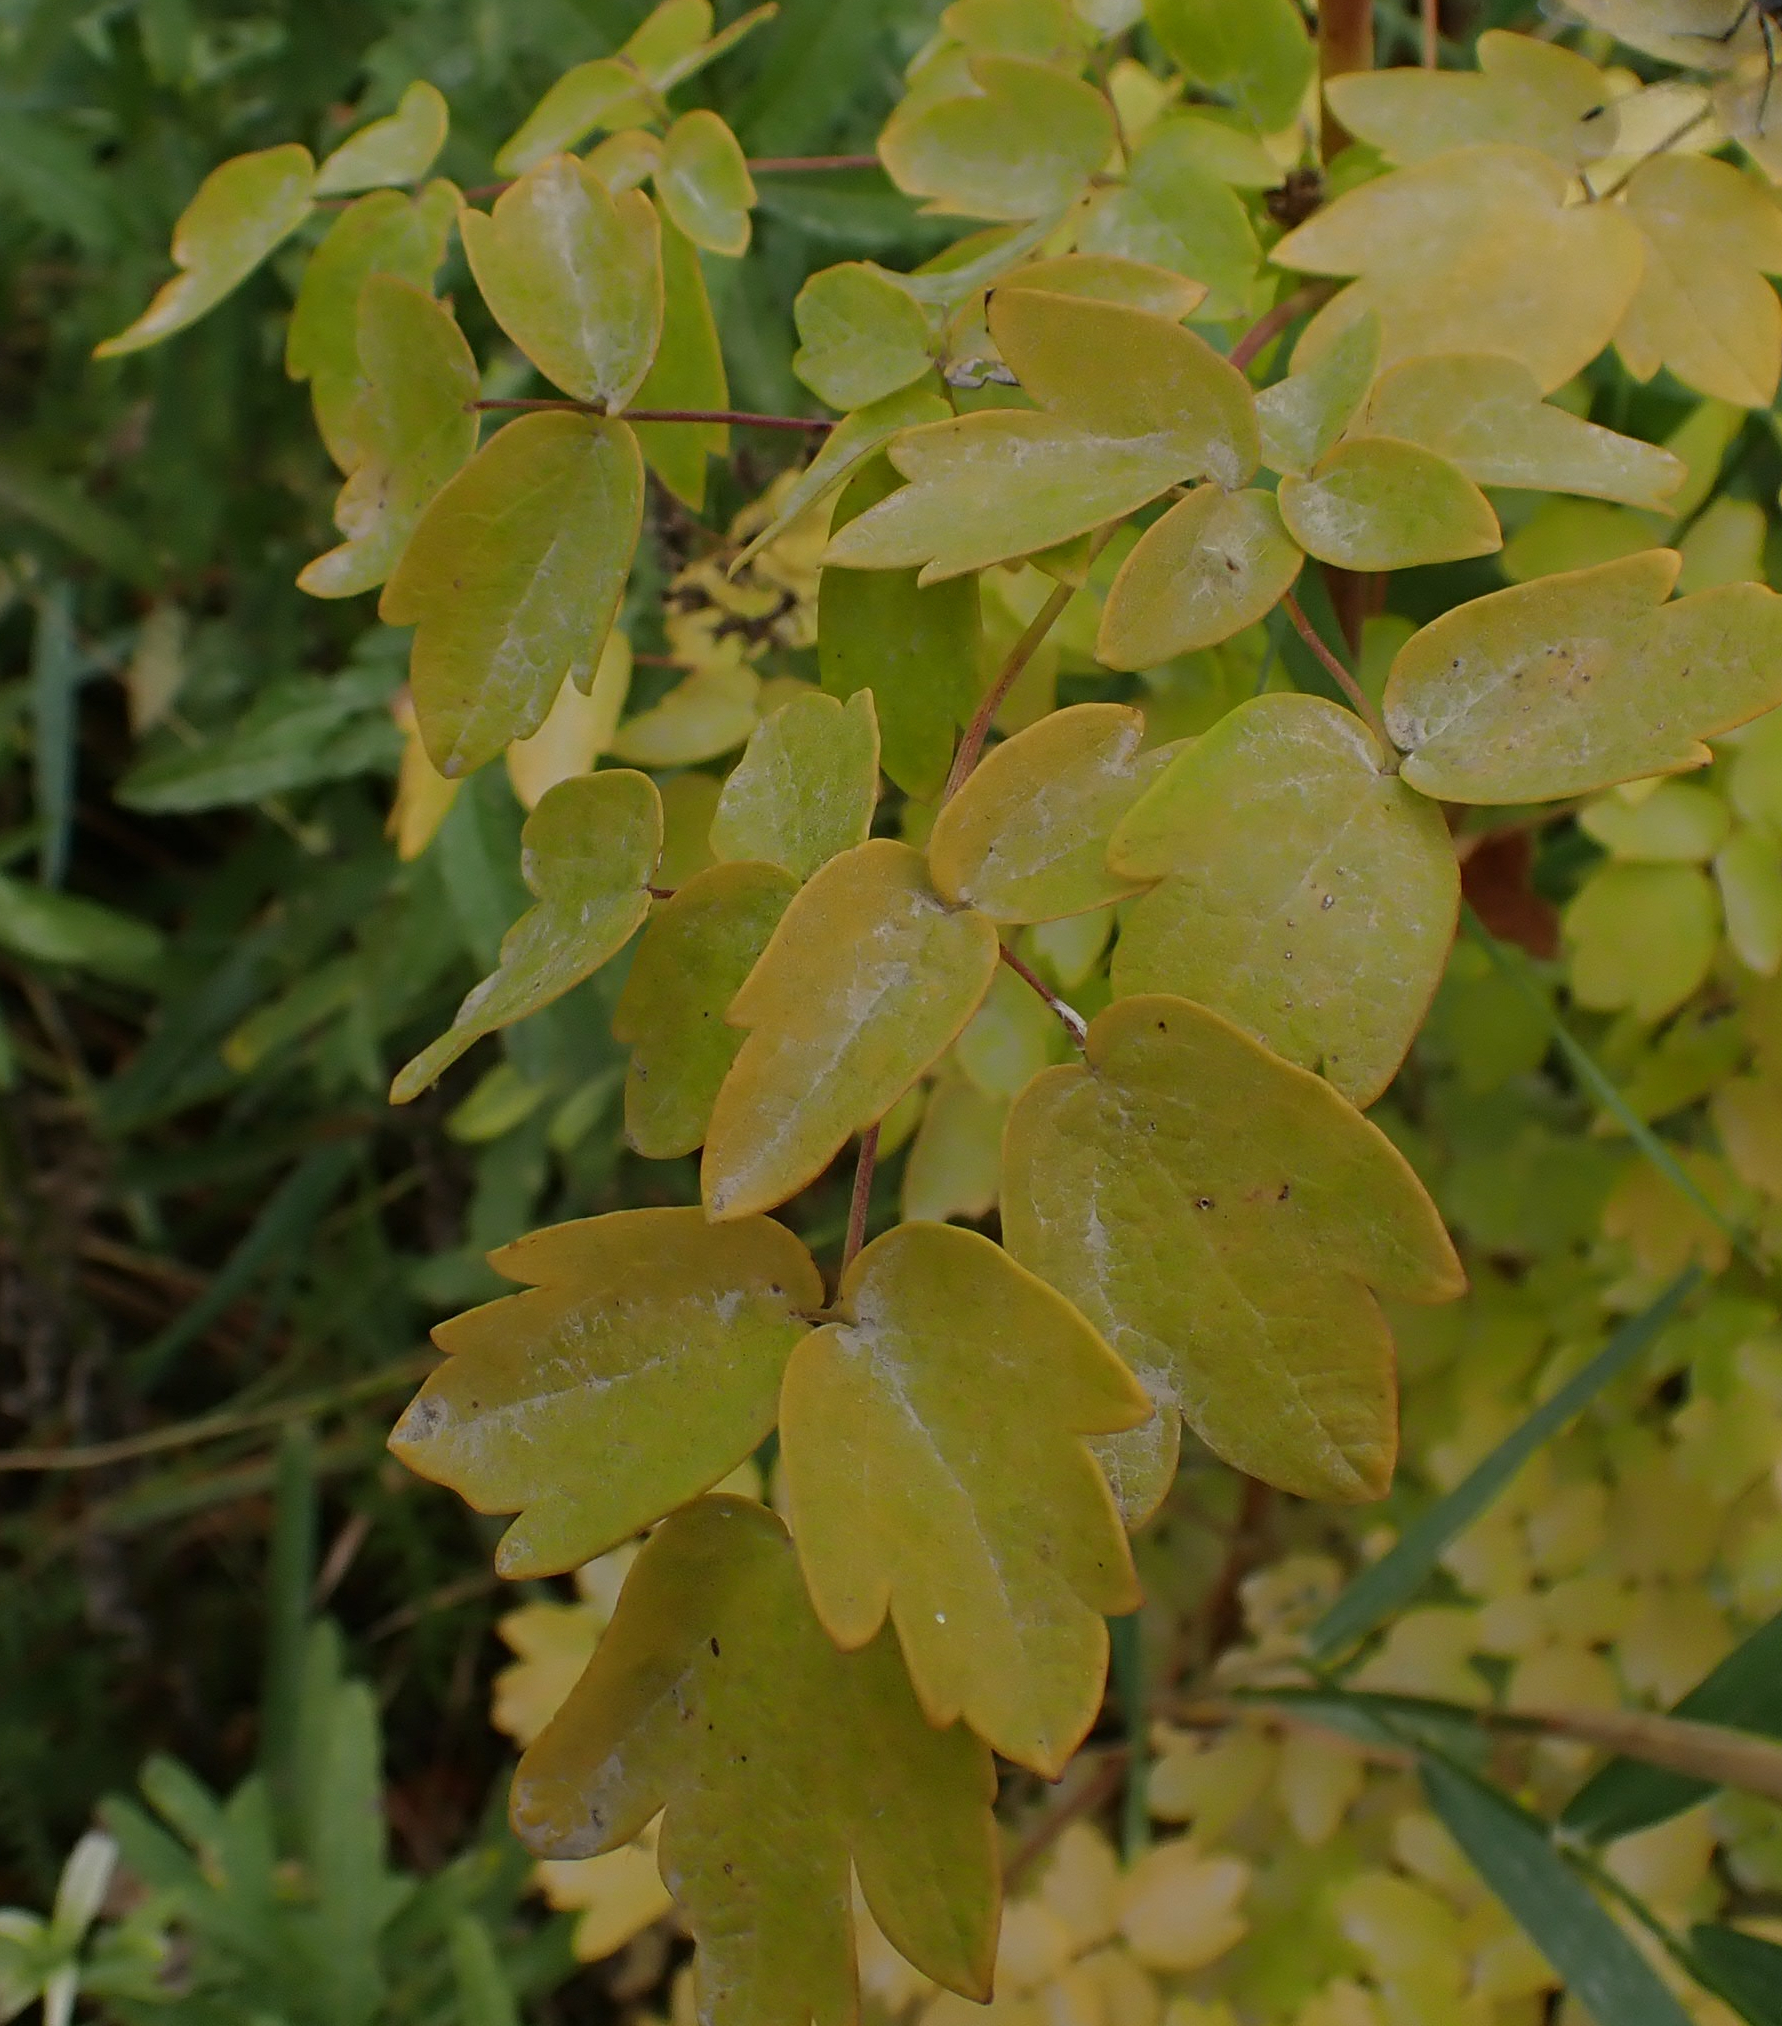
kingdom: Plantae
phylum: Tracheophyta
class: Magnoliopsida
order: Ranunculales
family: Ranunculaceae
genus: Thalictrum
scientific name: Thalictrum dasycarpum
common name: Purple meadow-rue
